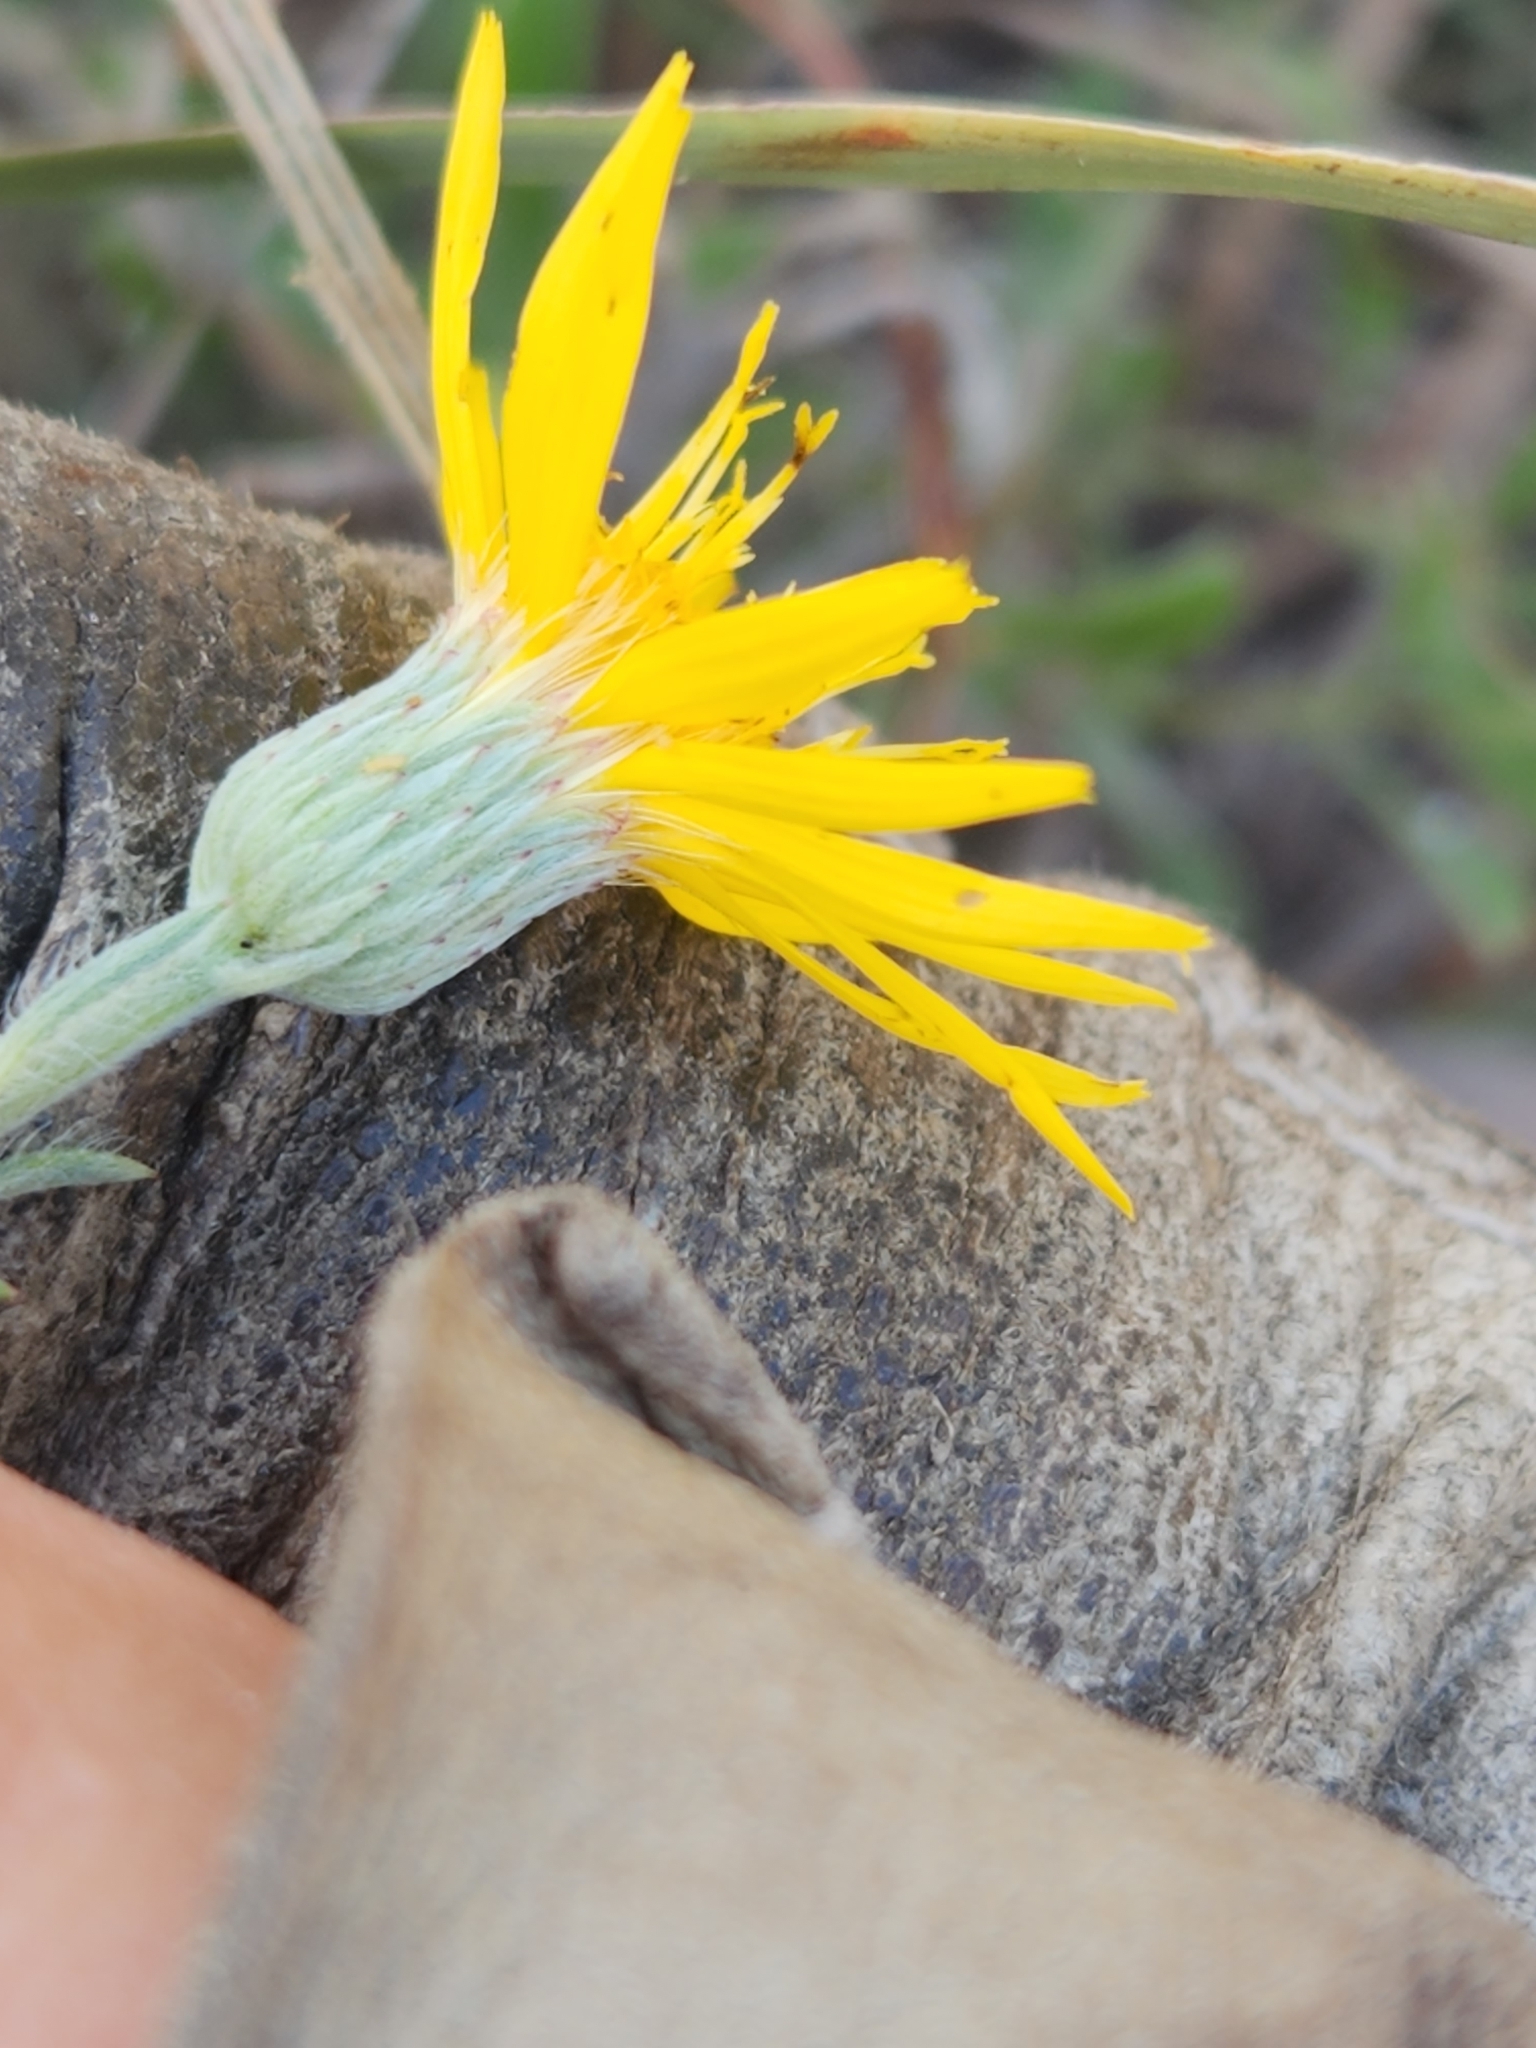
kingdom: Plantae
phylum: Tracheophyta
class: Magnoliopsida
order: Asterales
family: Asteraceae
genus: Heterotheca
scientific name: Heterotheca canescens
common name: Hoary golden-aster
